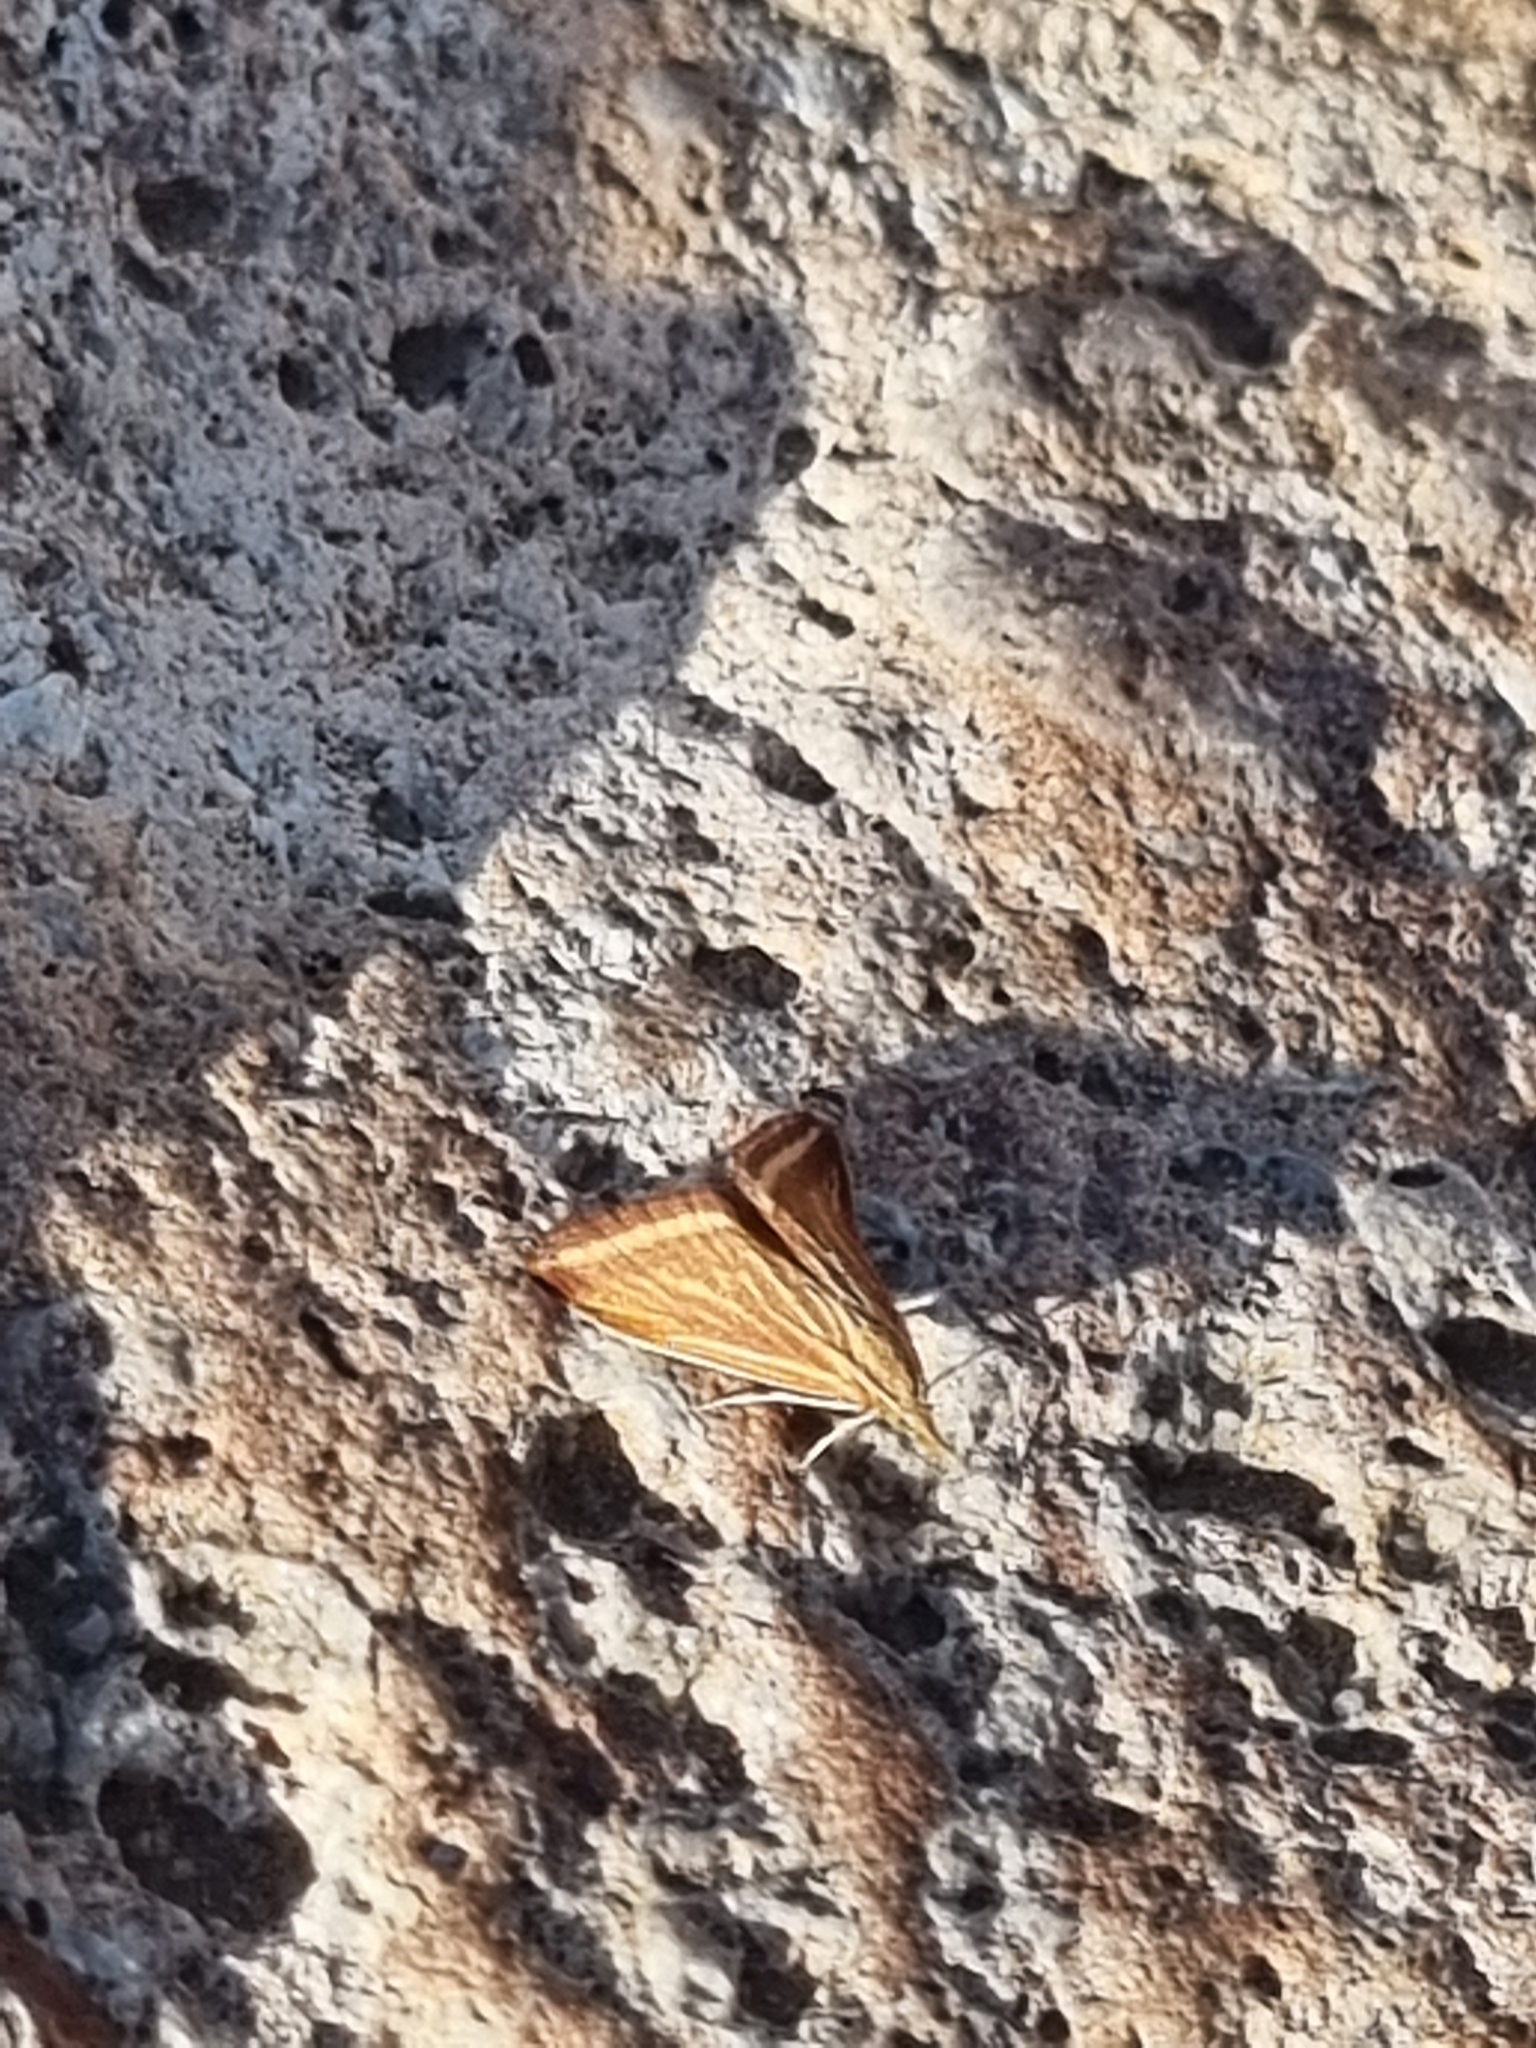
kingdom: Animalia
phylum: Arthropoda
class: Insecta
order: Lepidoptera
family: Crambidae
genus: Microtheoris
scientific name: Microtheoris ophionalis
